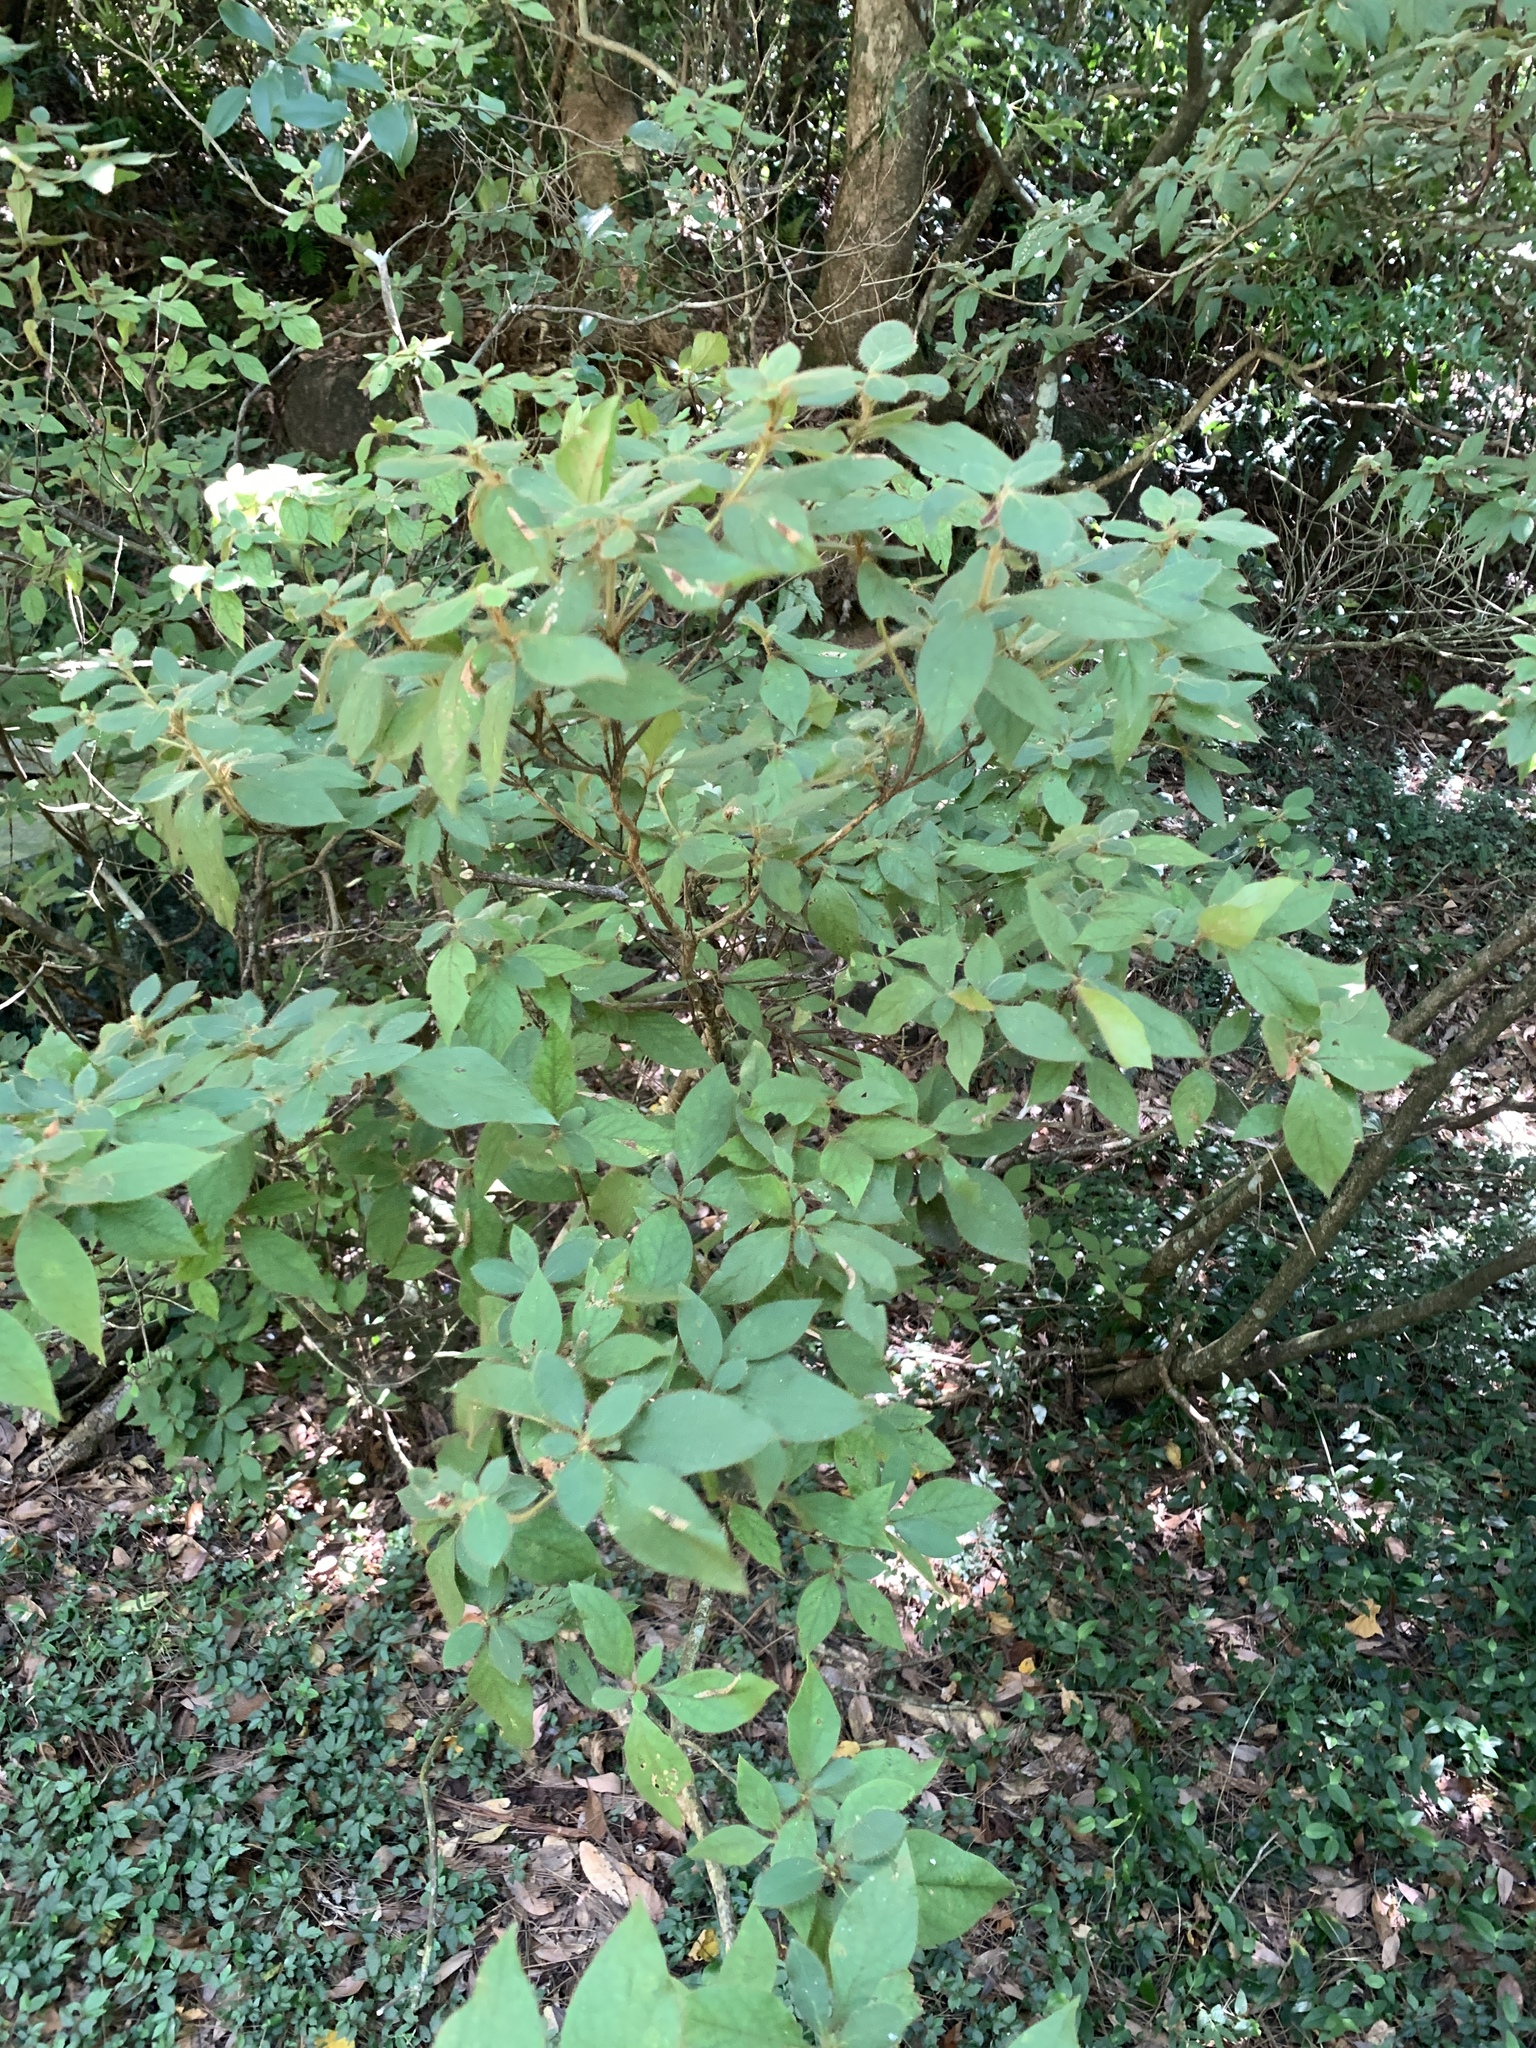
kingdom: Plantae
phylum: Tracheophyta
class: Magnoliopsida
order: Ericales
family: Ericaceae
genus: Rhododendron
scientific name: Rhododendron oldhamii
